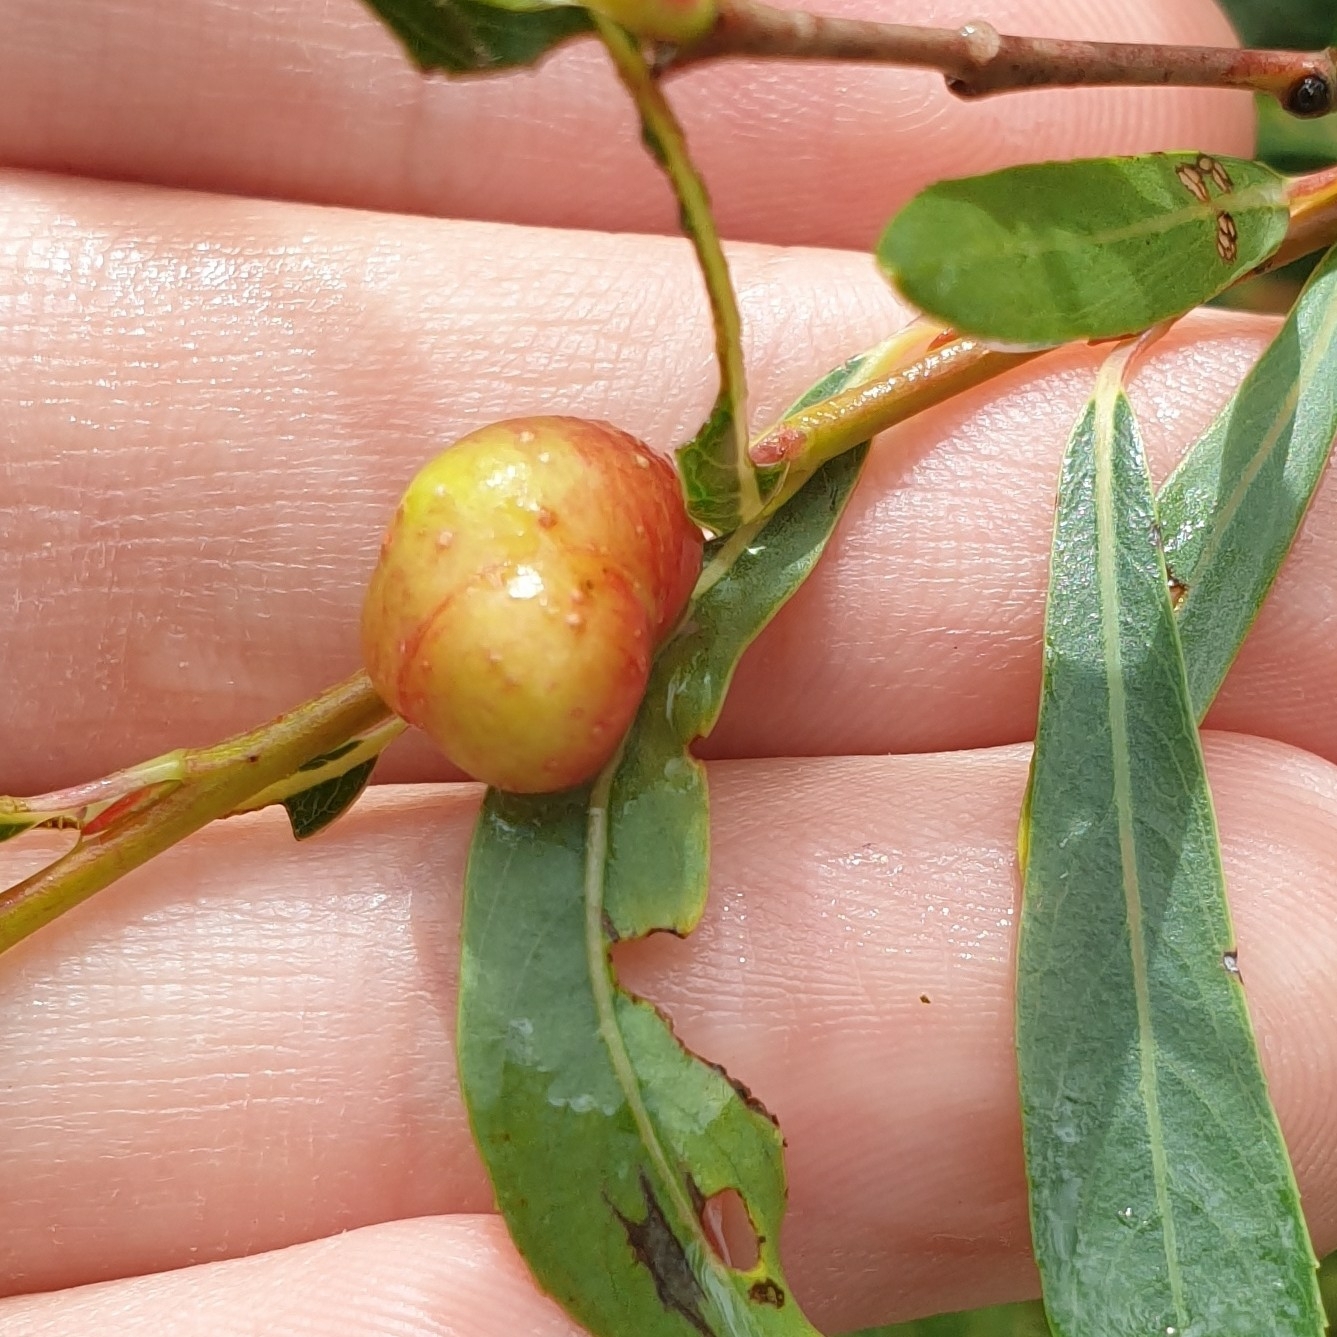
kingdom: Animalia
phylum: Arthropoda
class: Insecta
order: Hymenoptera
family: Tenthredinidae
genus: Euura
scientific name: Euura viminalis
